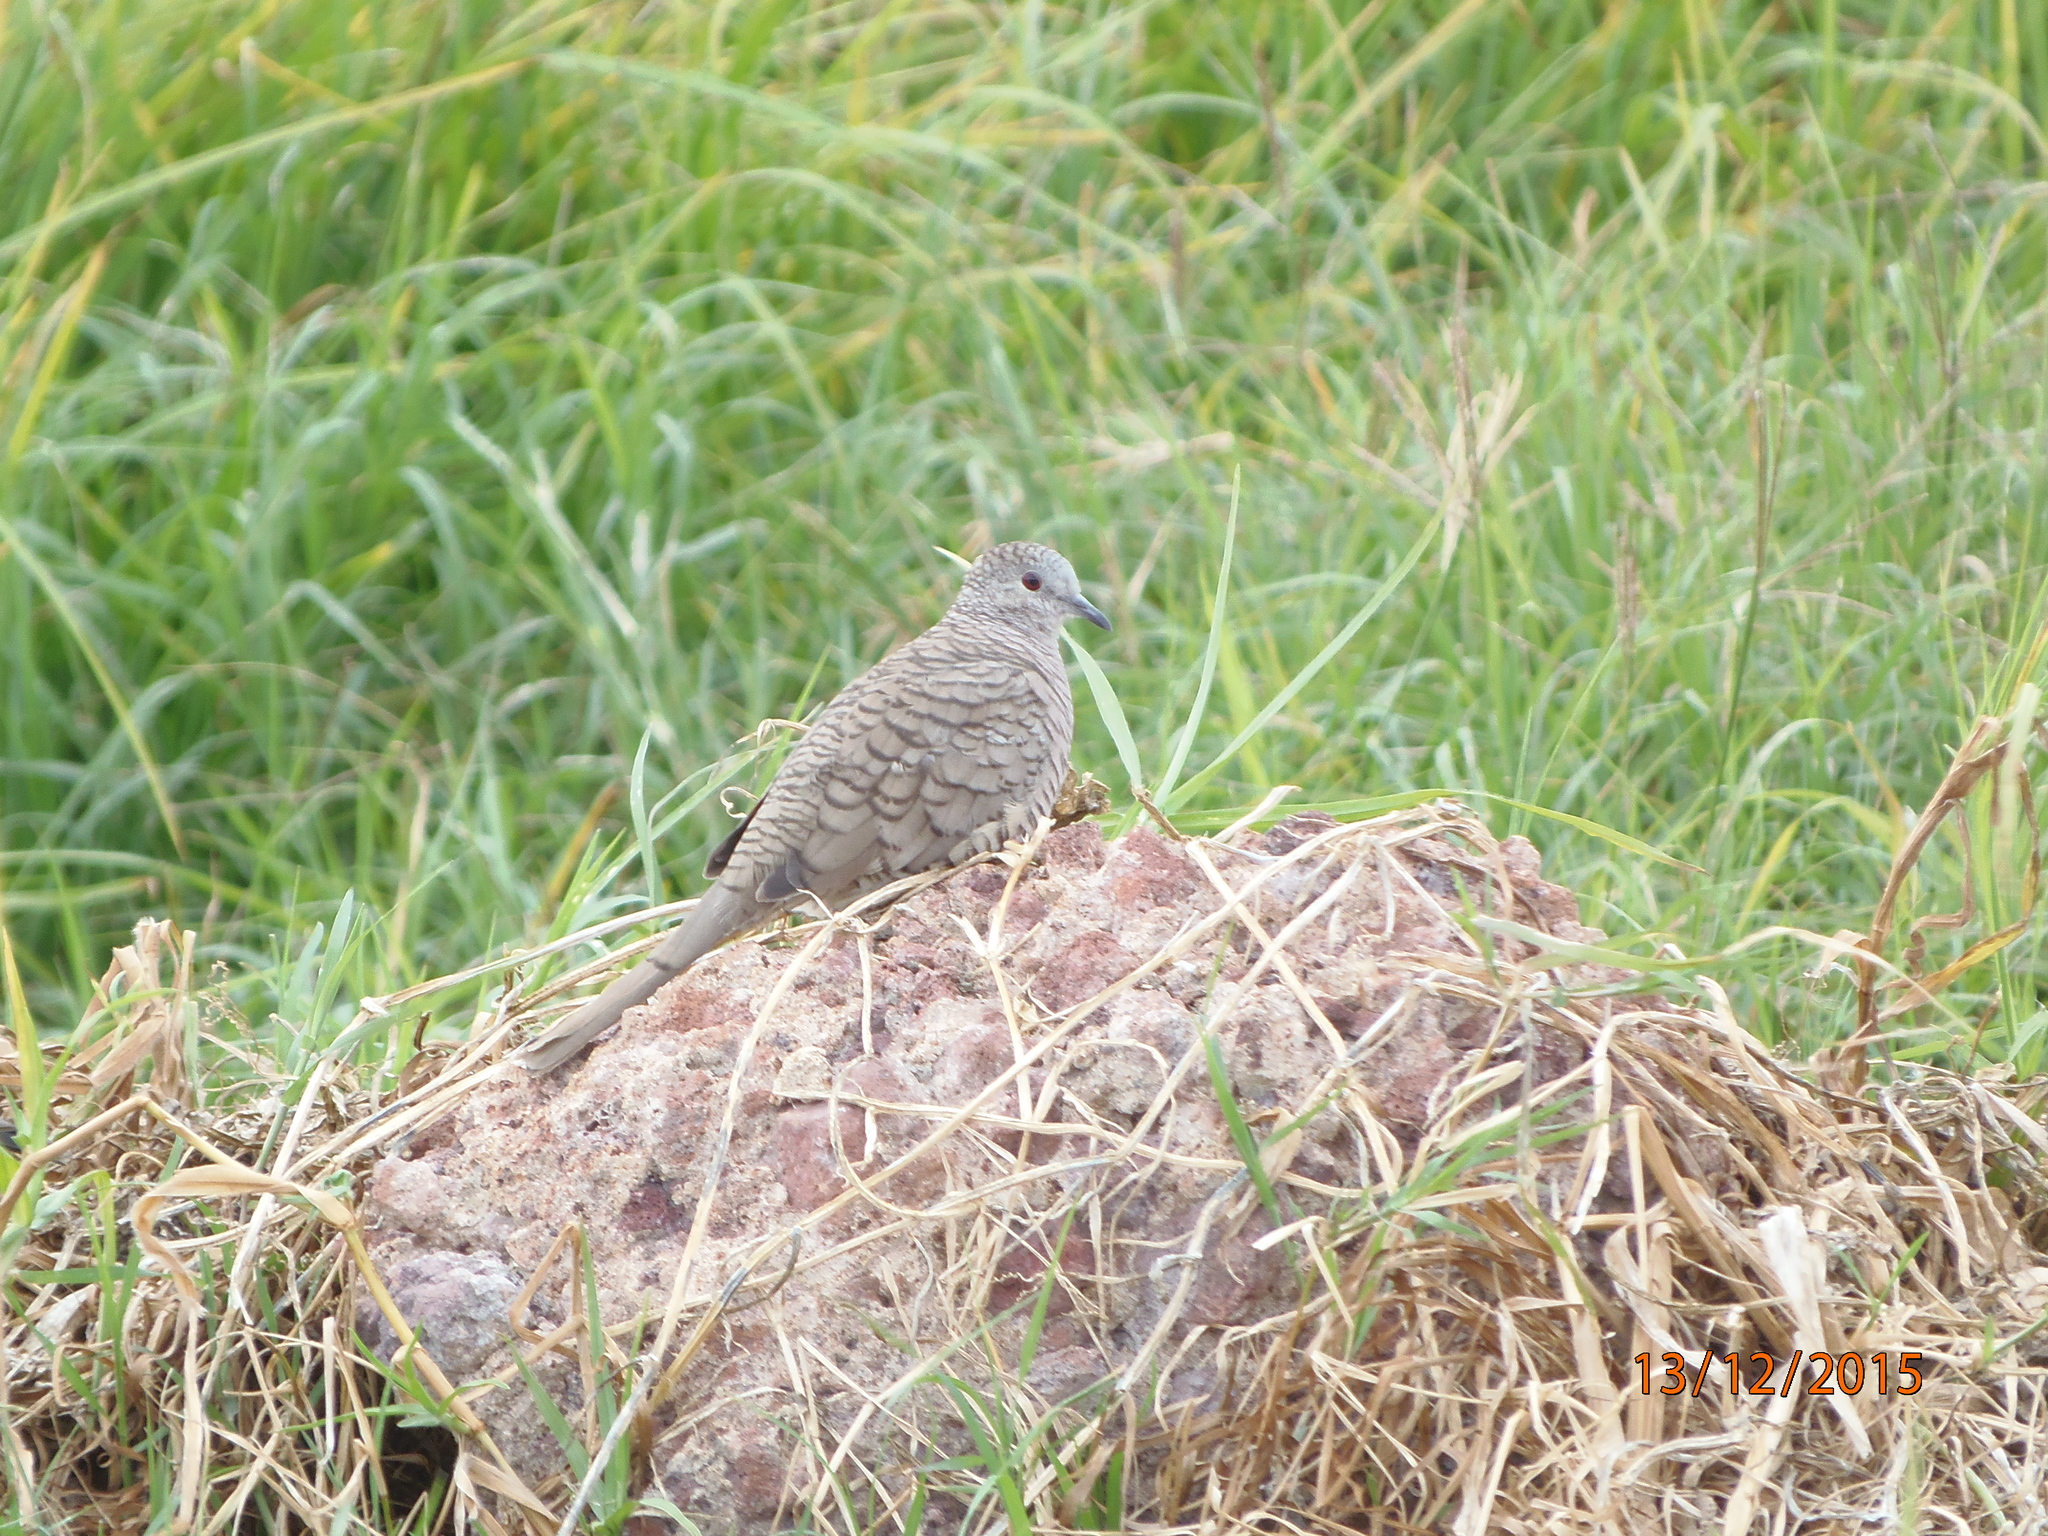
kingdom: Animalia
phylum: Chordata
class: Aves
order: Columbiformes
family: Columbidae
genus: Columbina
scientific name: Columbina inca
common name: Inca dove
